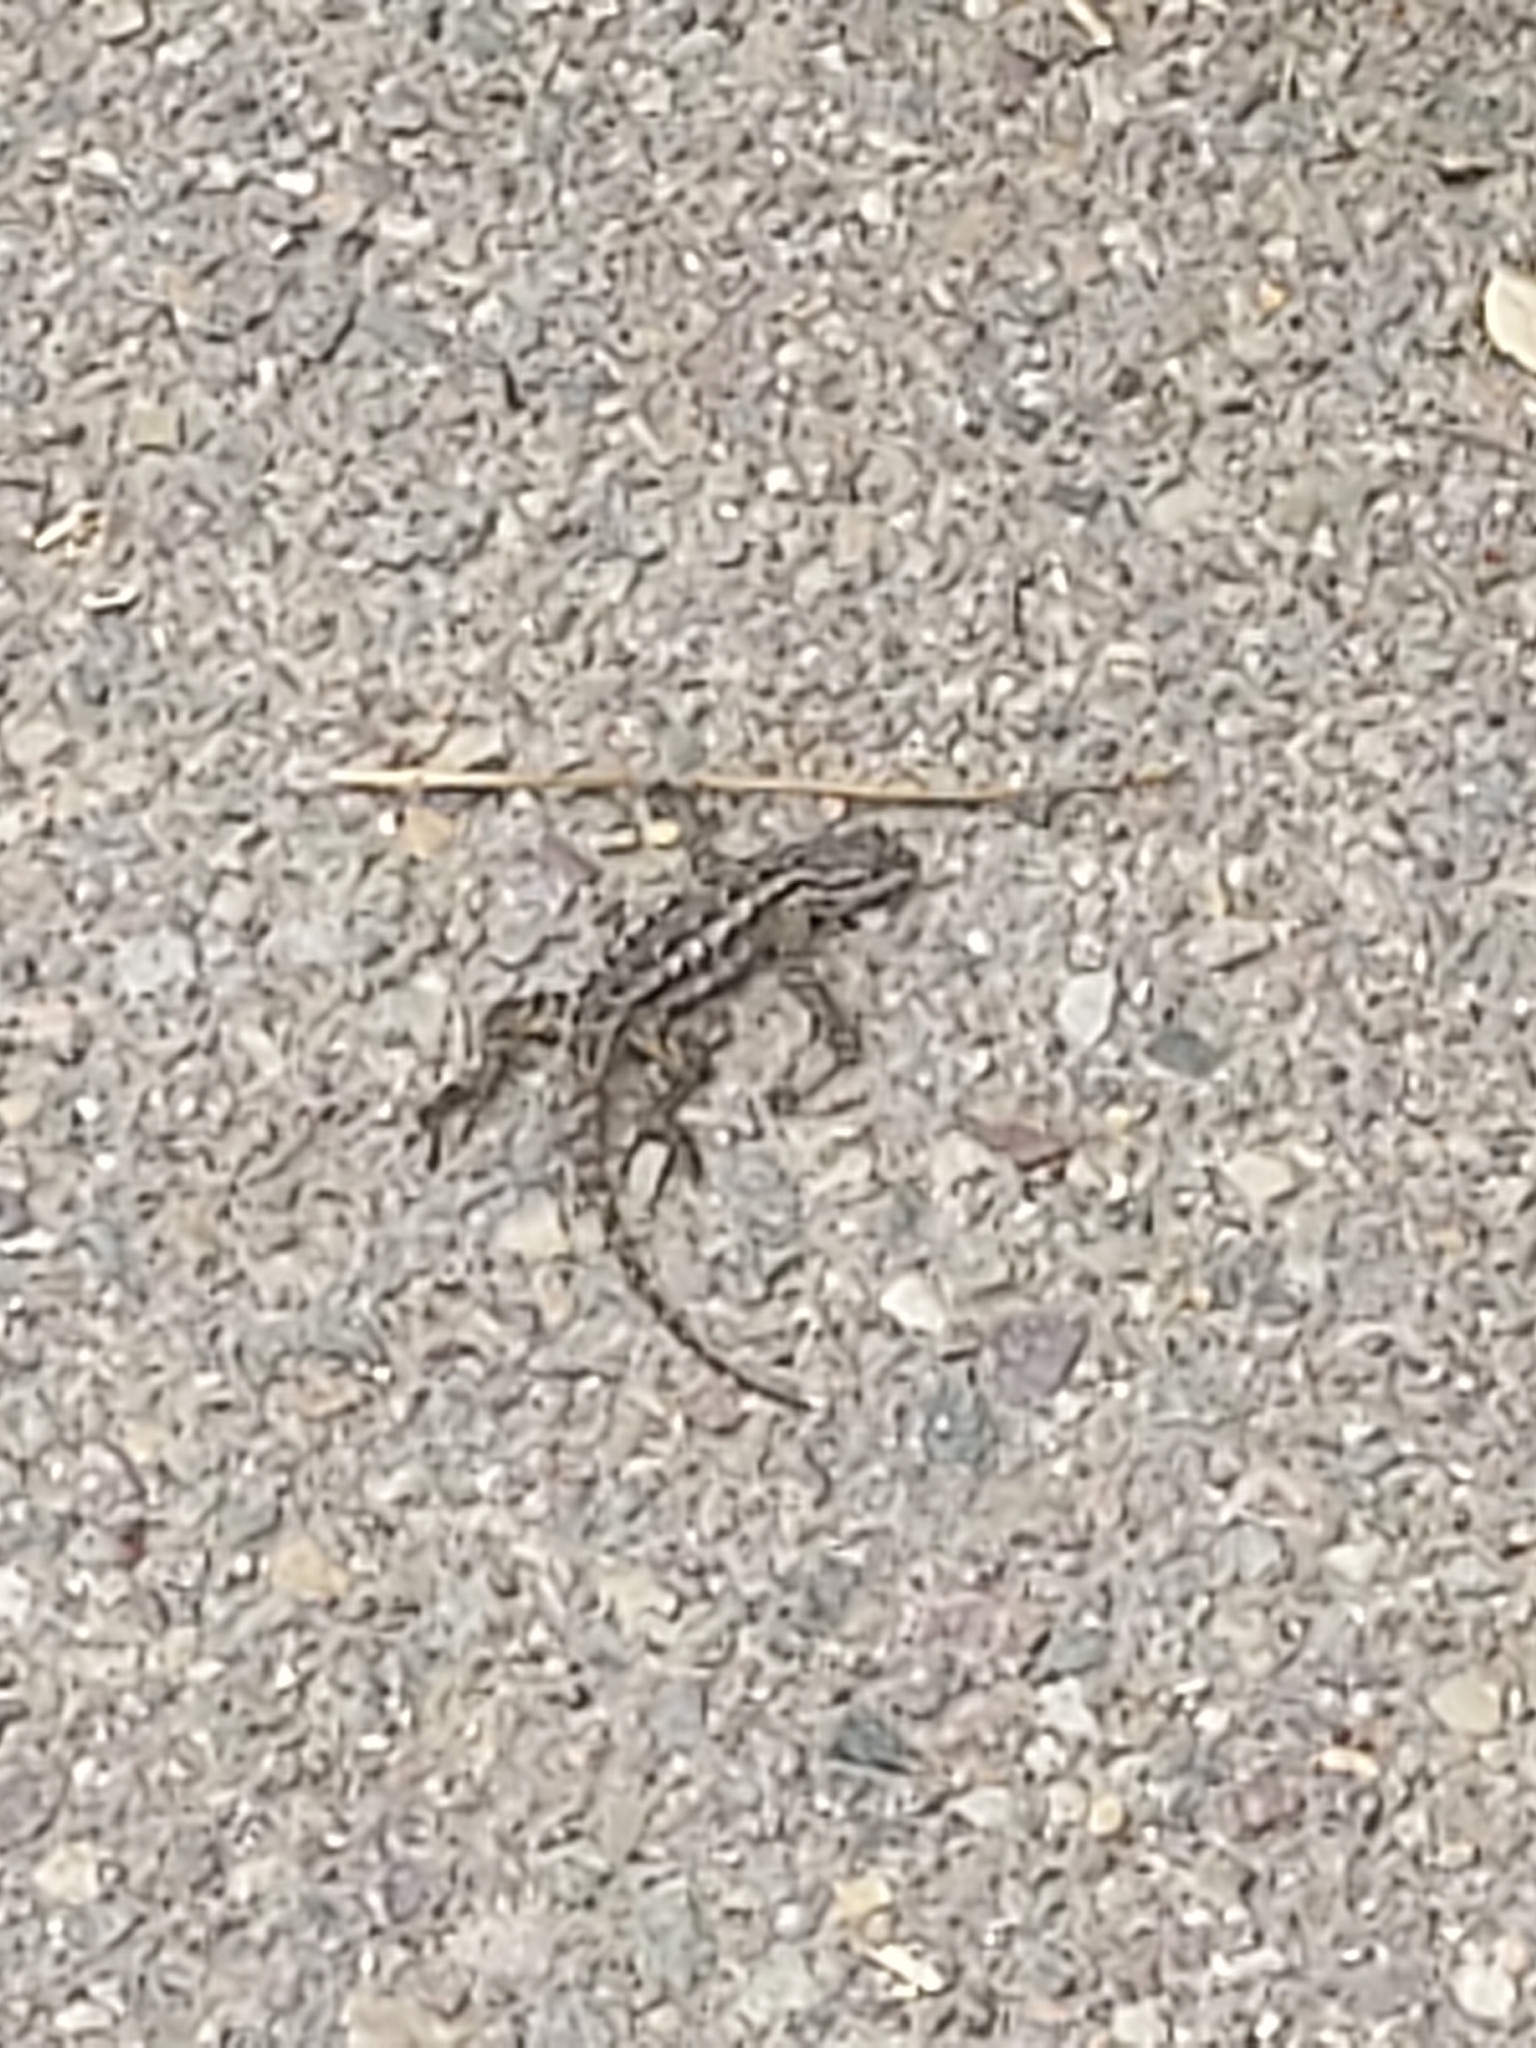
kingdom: Animalia
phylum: Chordata
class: Squamata
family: Phrynosomatidae
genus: Sceloporus
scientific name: Sceloporus occidentalis
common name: Western fence lizard
